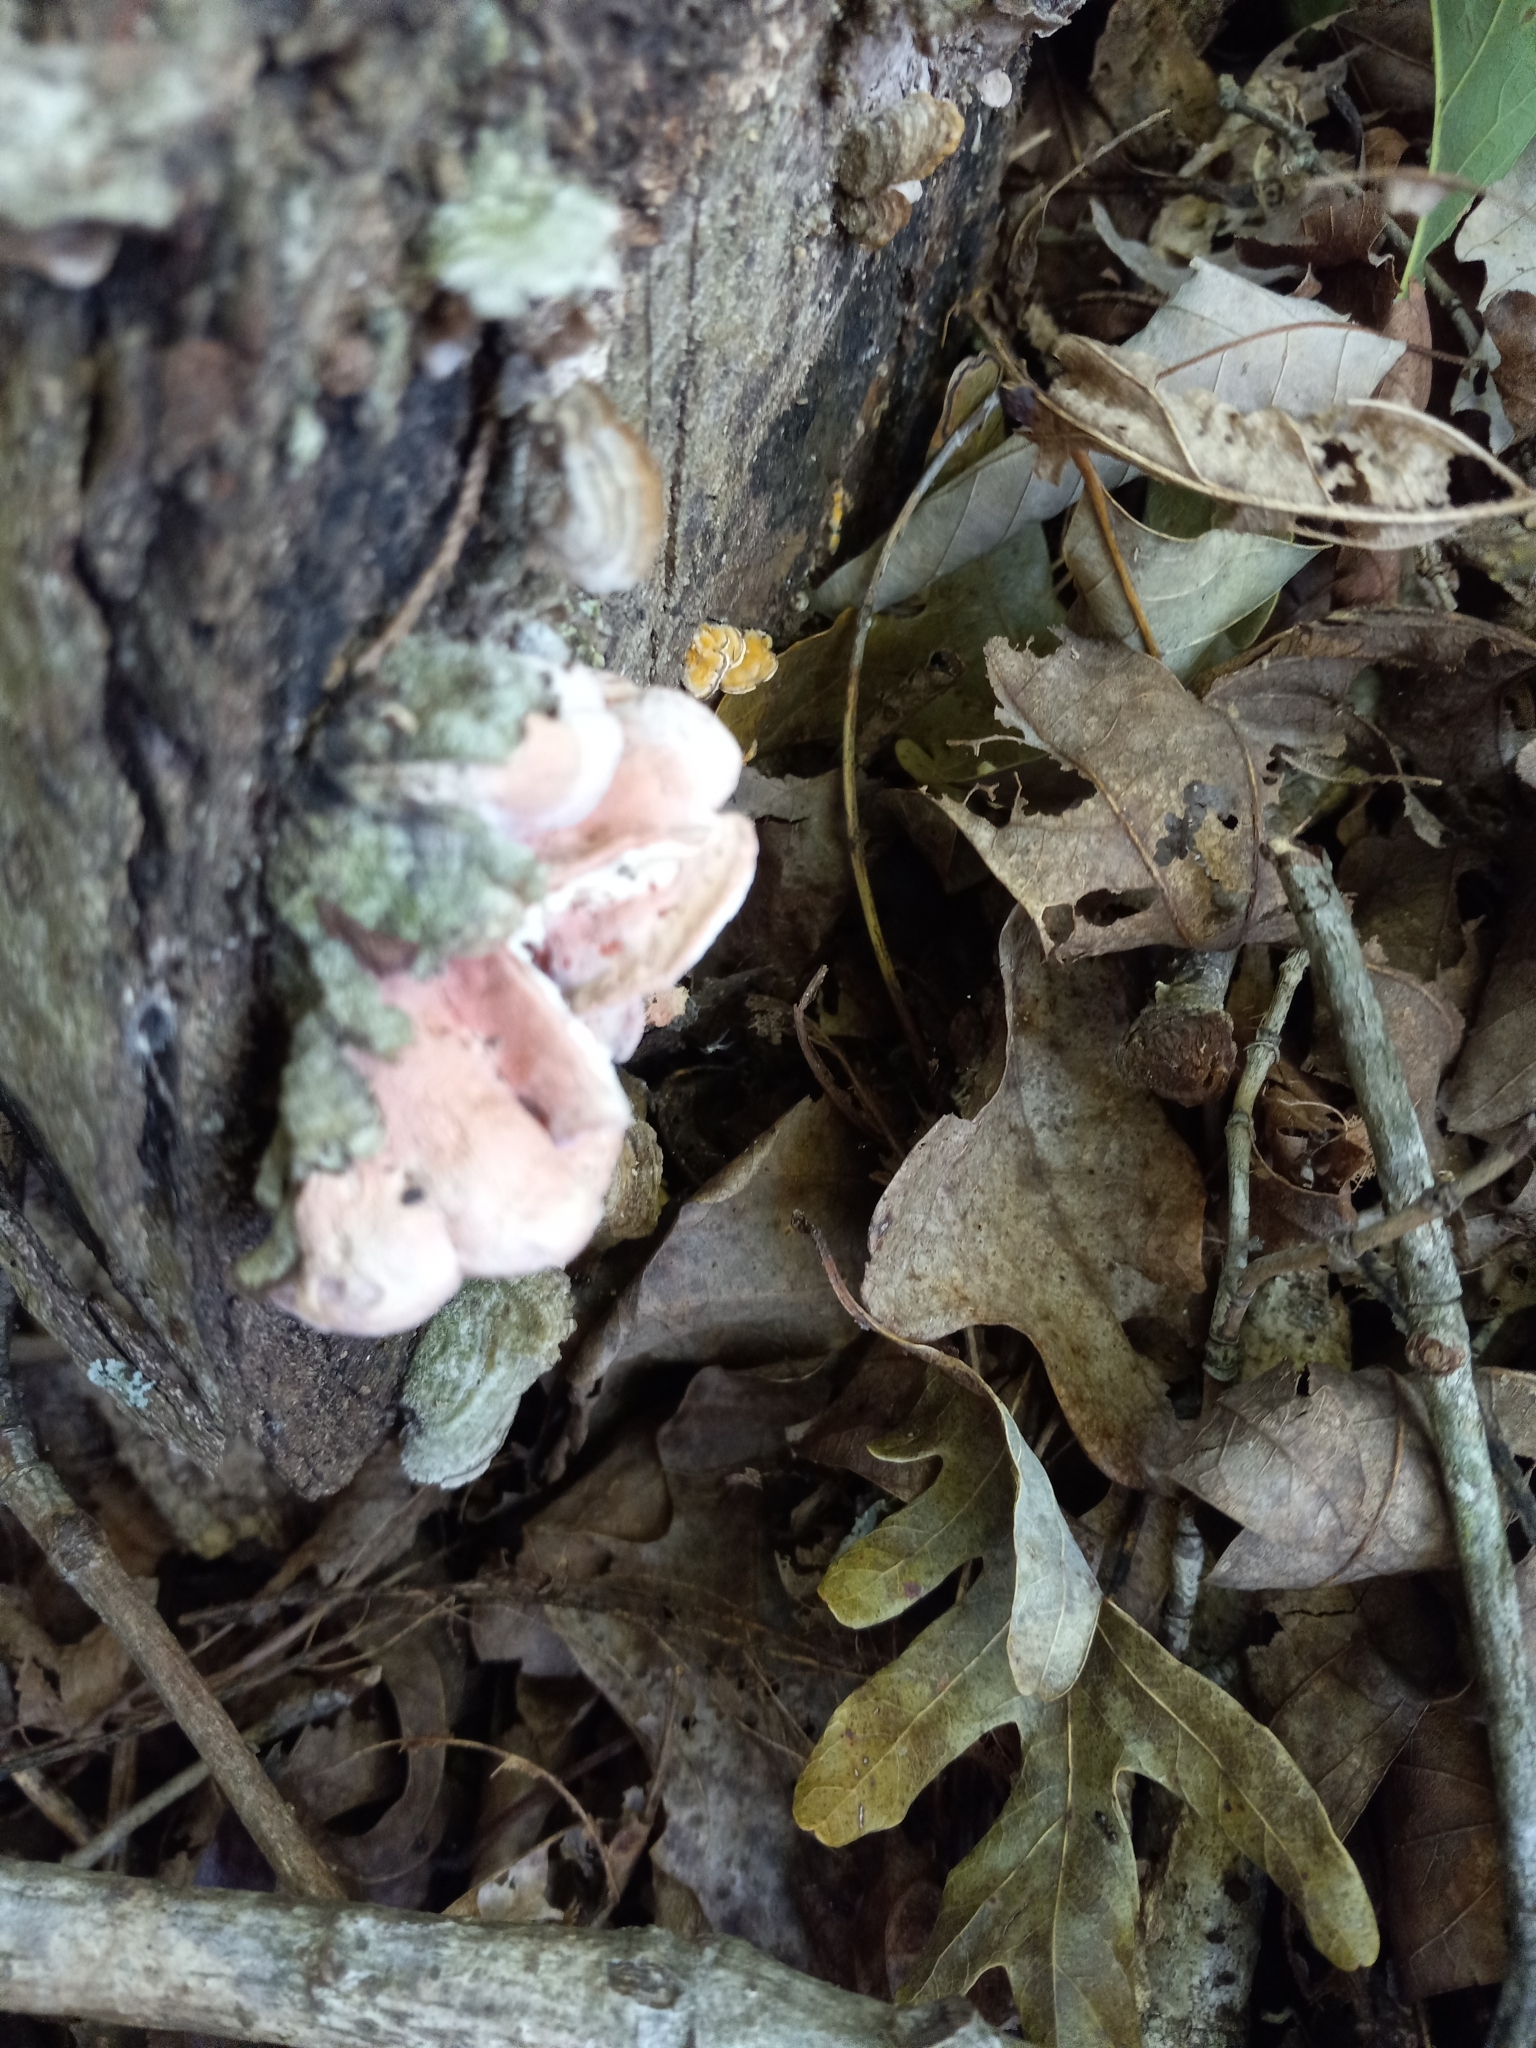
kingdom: Fungi
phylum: Basidiomycota
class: Agaricomycetes
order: Polyporales
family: Irpicaceae
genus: Byssomerulius
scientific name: Byssomerulius incarnatus
